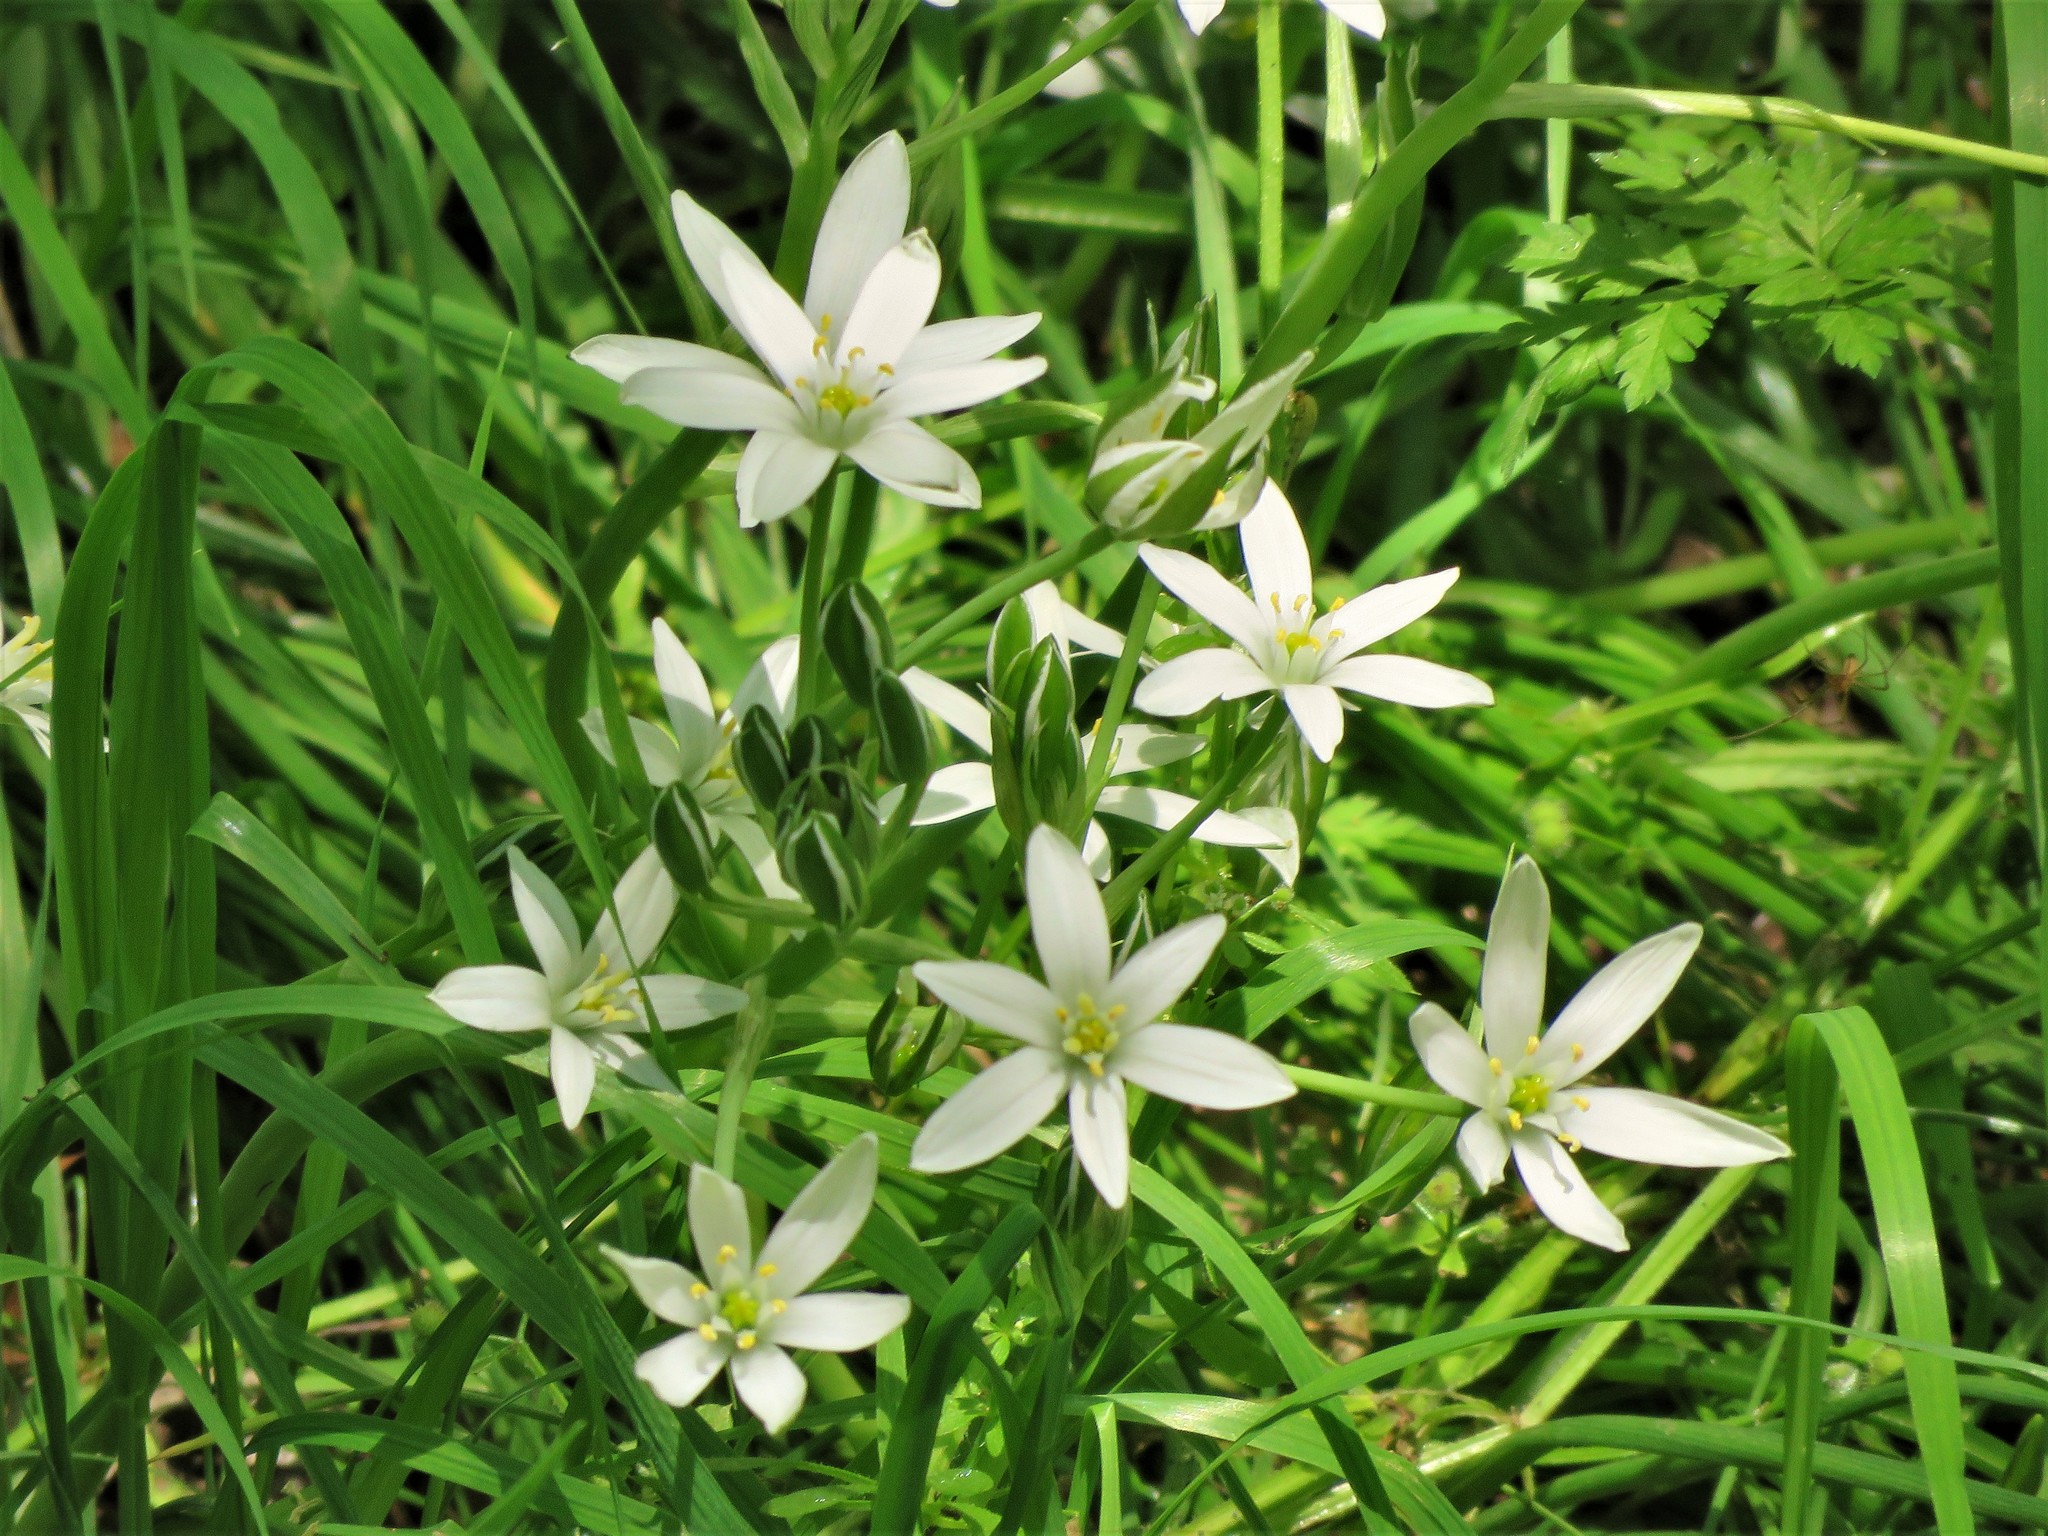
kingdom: Plantae
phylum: Tracheophyta
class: Liliopsida
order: Asparagales
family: Asparagaceae
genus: Ornithogalum
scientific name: Ornithogalum umbellatum
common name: Garden star-of-bethlehem
